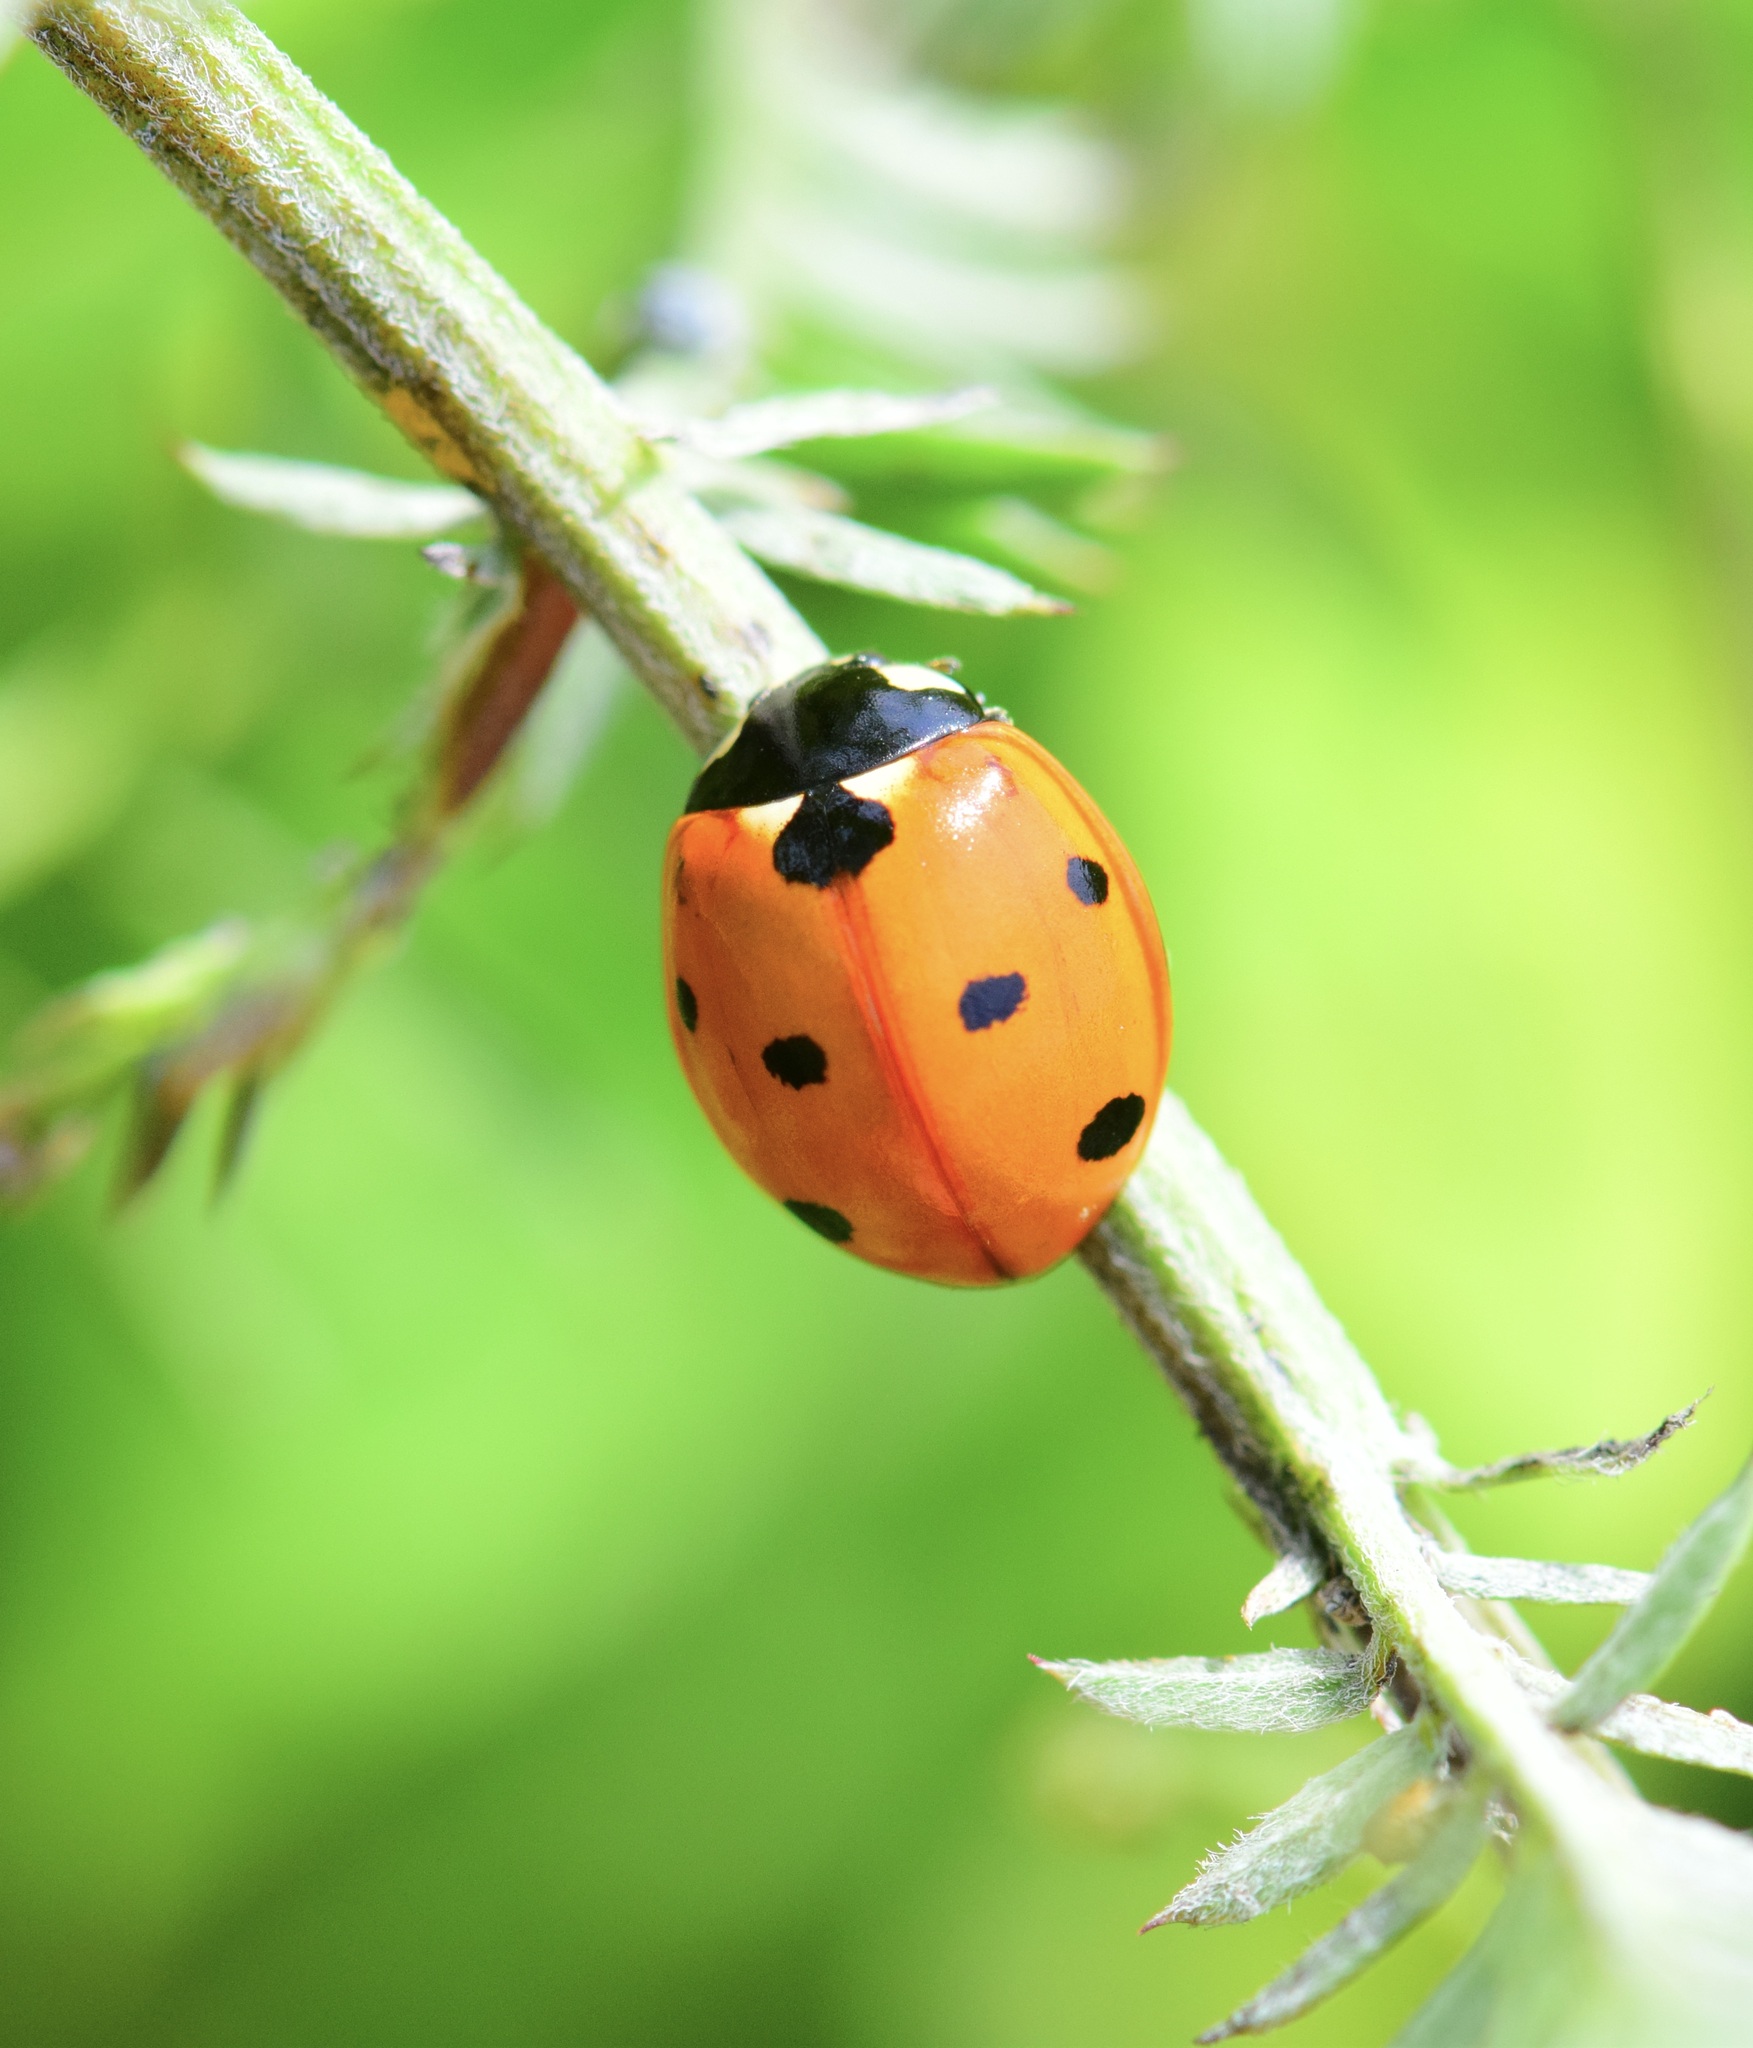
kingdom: Animalia
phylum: Arthropoda
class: Insecta
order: Coleoptera
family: Coccinellidae
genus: Coccinella
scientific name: Coccinella septempunctata
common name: Sevenspotted lady beetle
